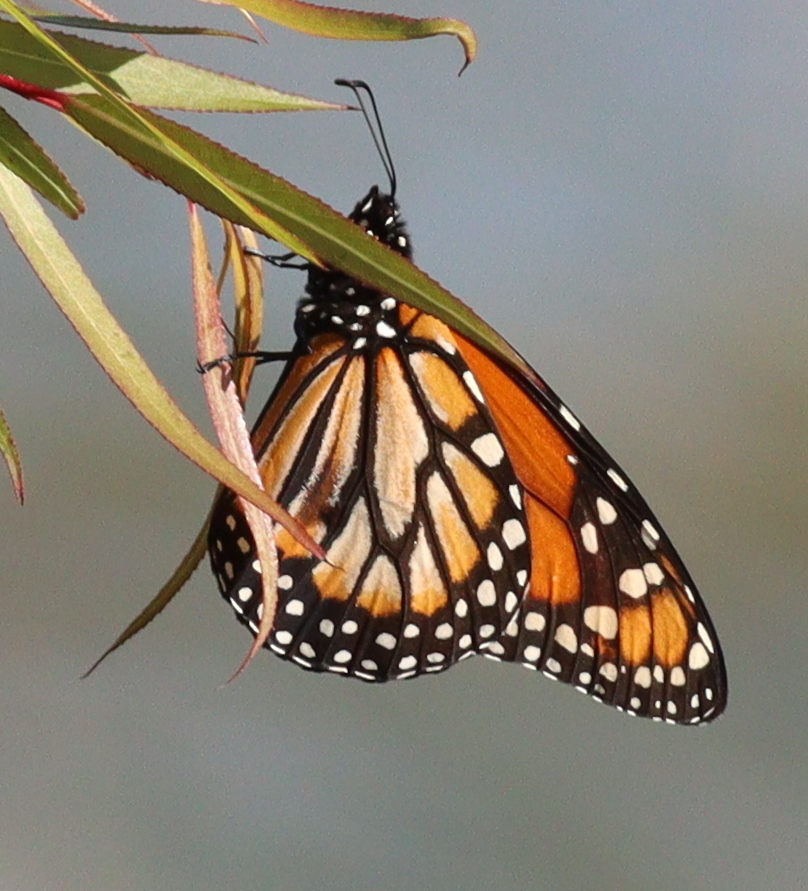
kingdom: Animalia
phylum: Arthropoda
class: Insecta
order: Lepidoptera
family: Nymphalidae
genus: Danaus
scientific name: Danaus erippus
